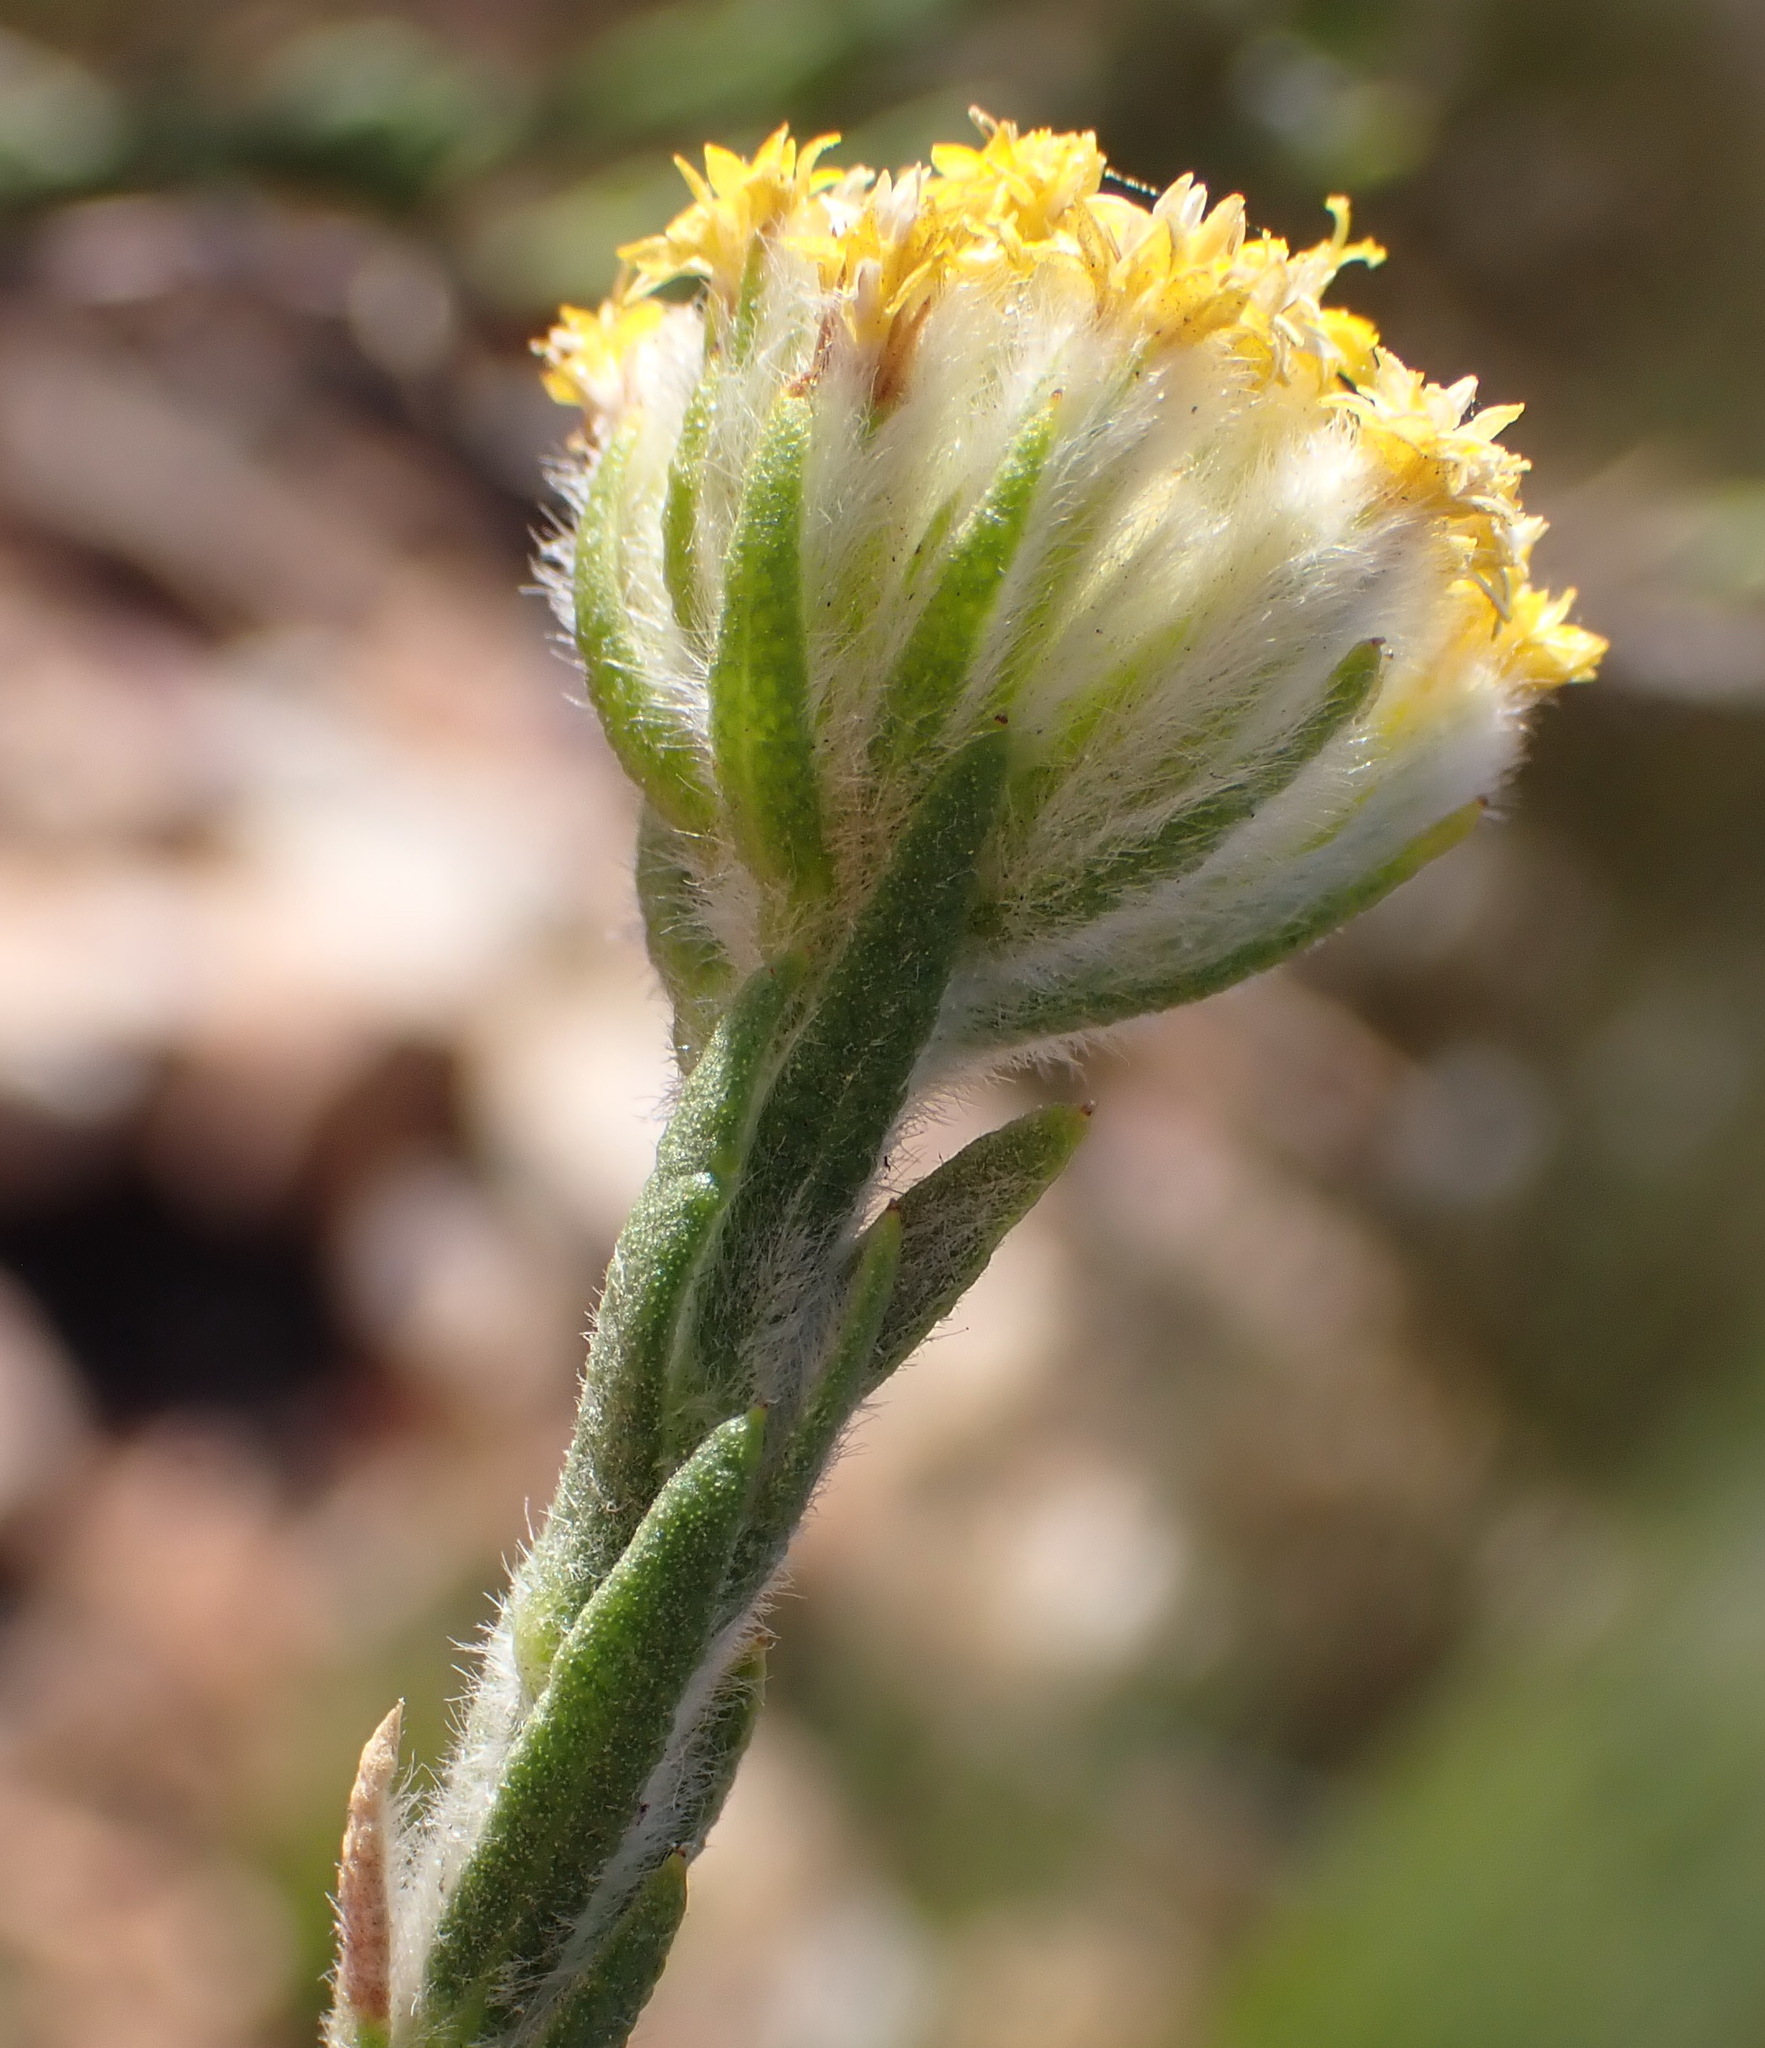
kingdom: Plantae
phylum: Tracheophyta
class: Magnoliopsida
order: Asterales
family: Asteraceae
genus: Hymenolepis
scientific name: Hymenolepis gnidioides
